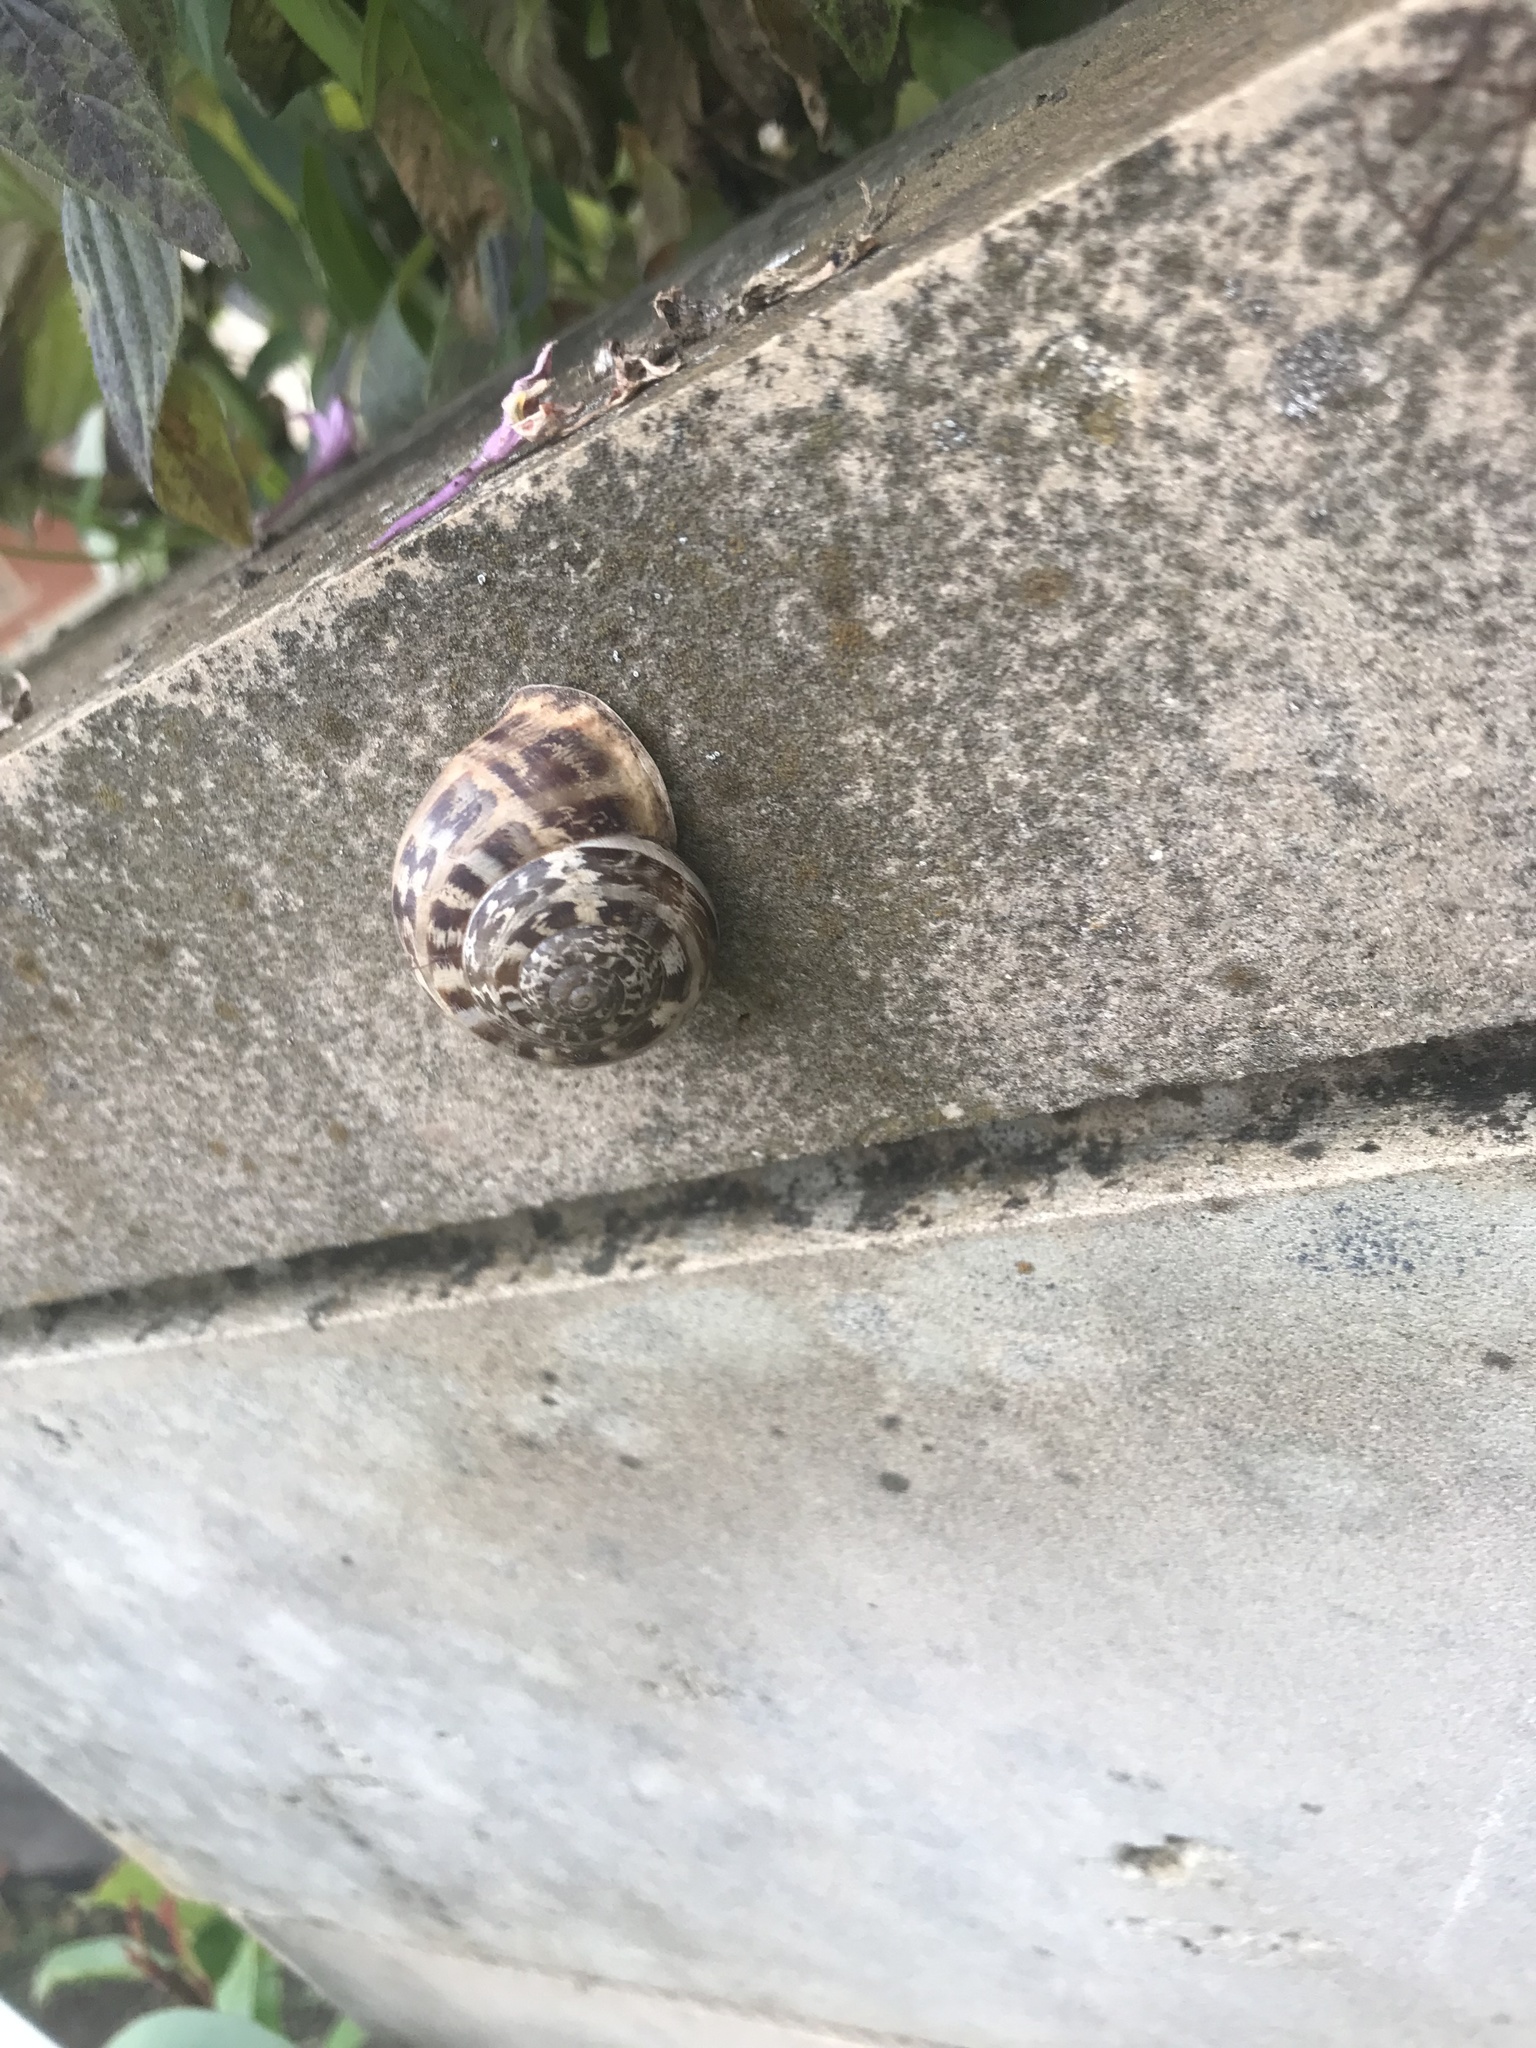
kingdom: Animalia
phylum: Mollusca
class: Gastropoda
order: Stylommatophora
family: Helicidae
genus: Eobania
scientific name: Eobania vermiculata
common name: Chocolateband snail
